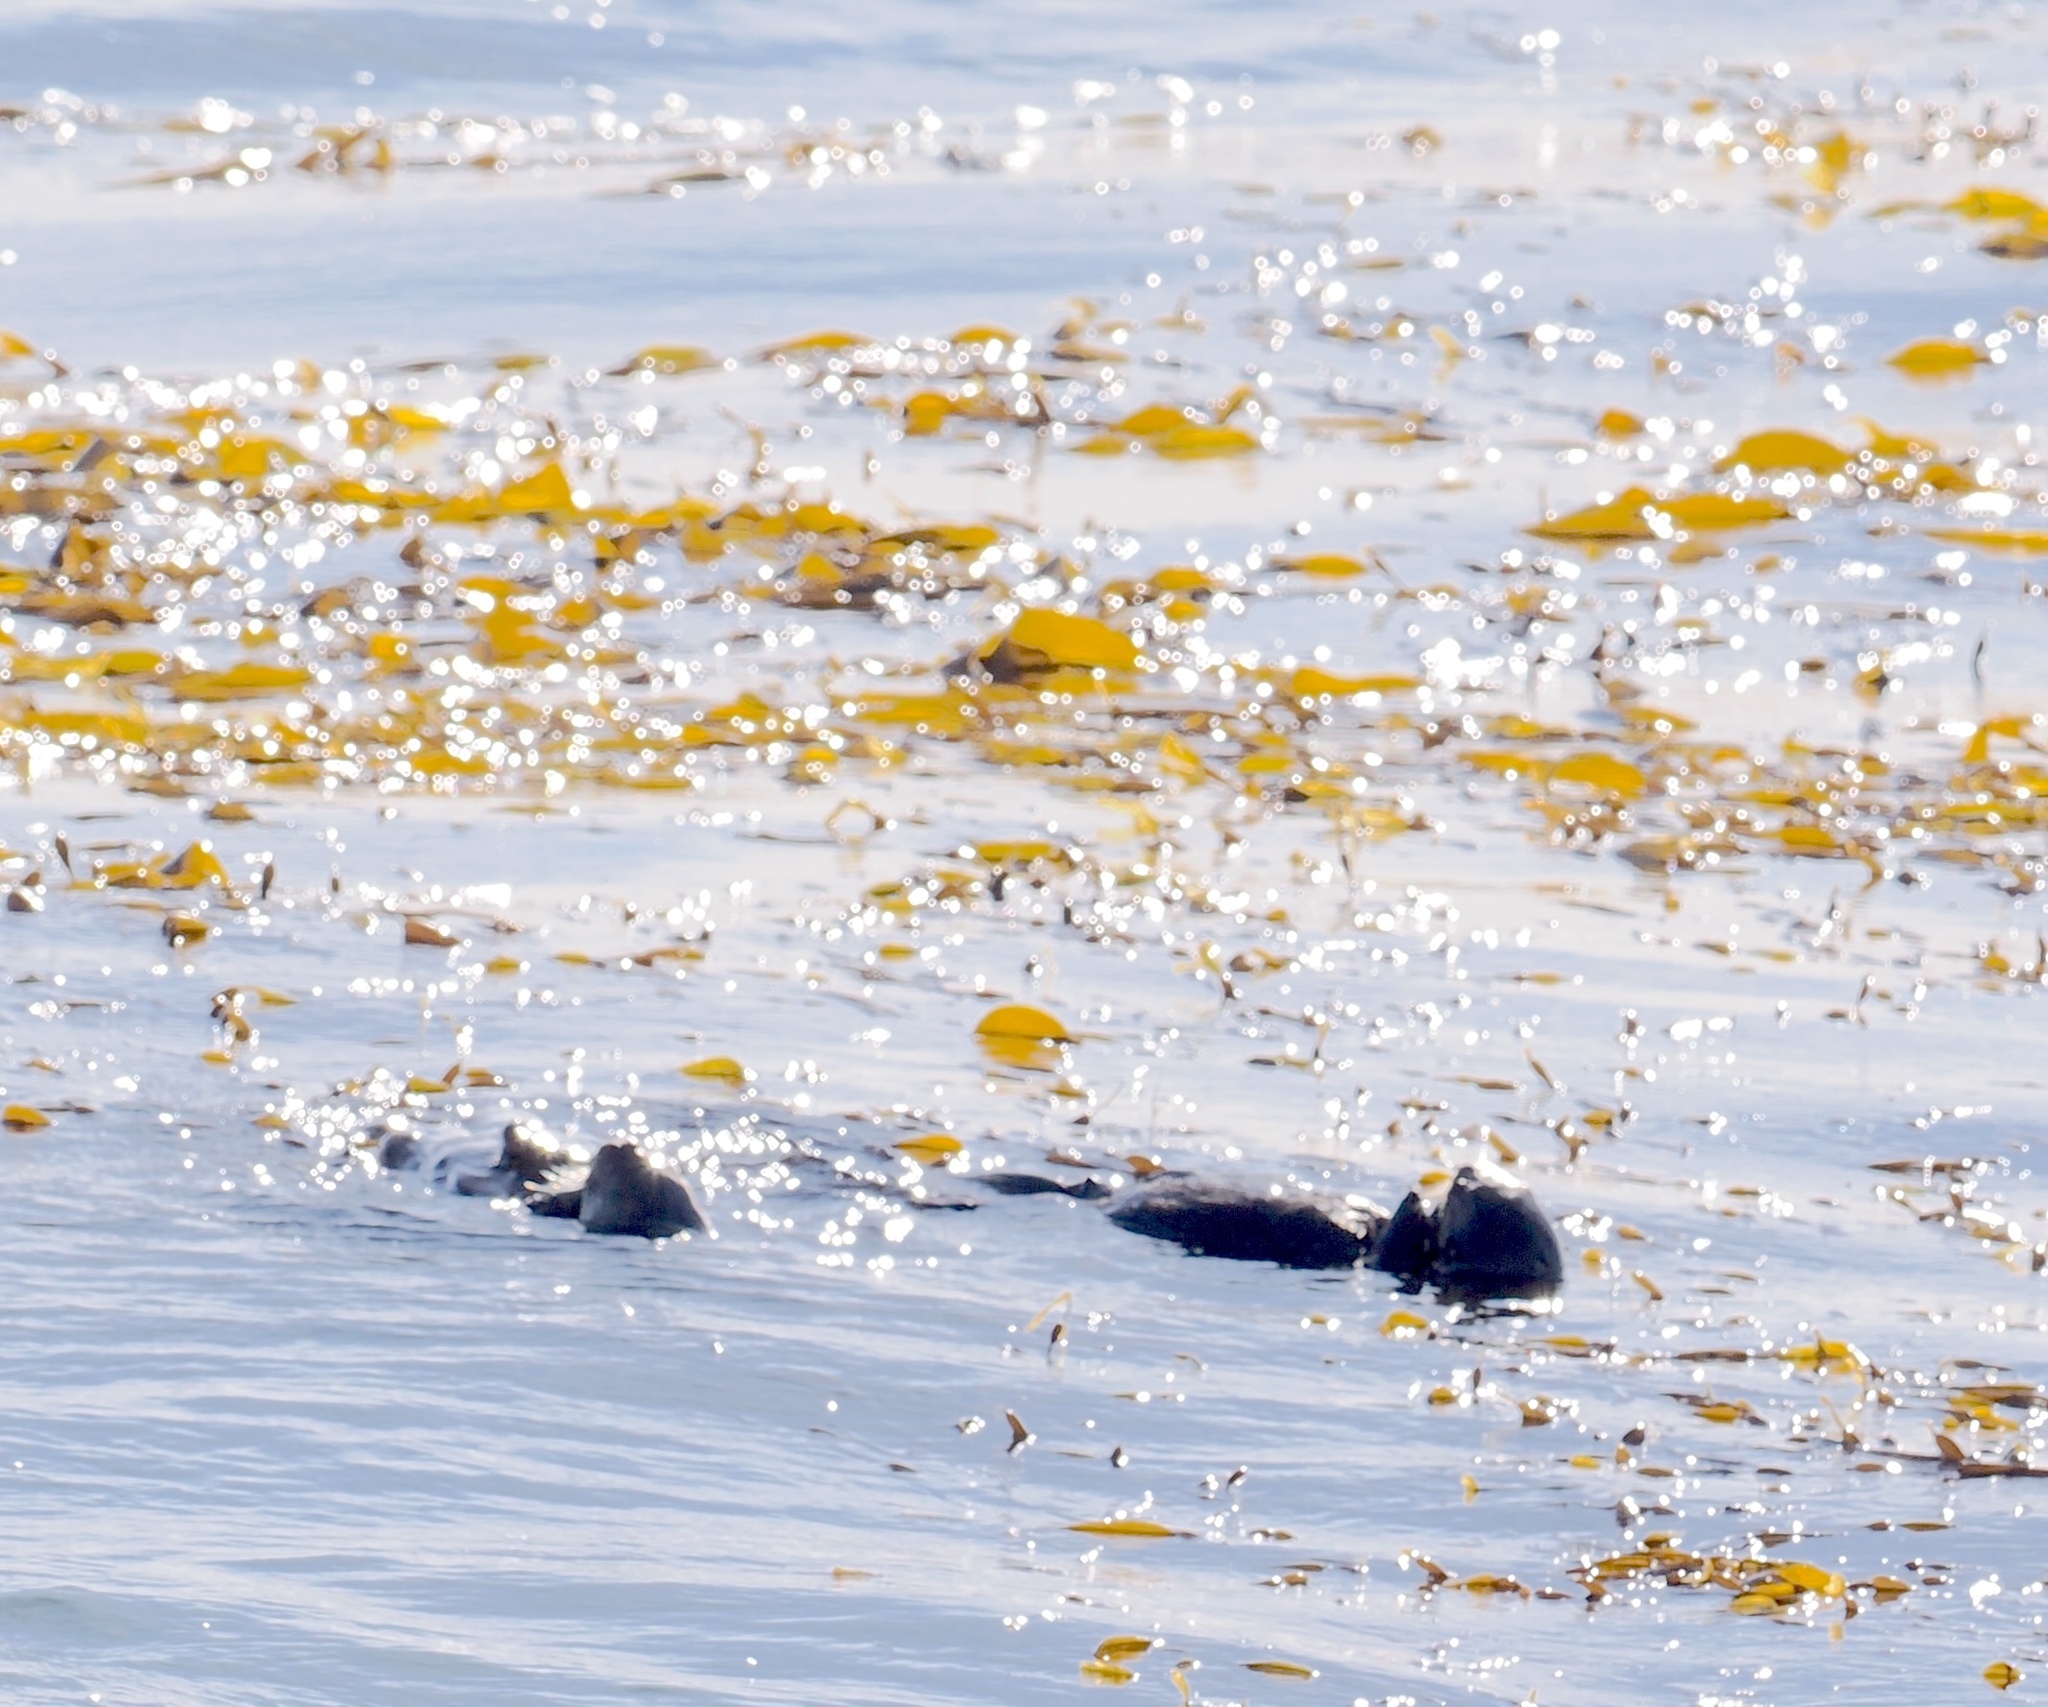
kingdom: Animalia
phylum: Chordata
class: Mammalia
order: Carnivora
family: Mustelidae
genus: Enhydra
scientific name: Enhydra lutris
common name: Sea otter
